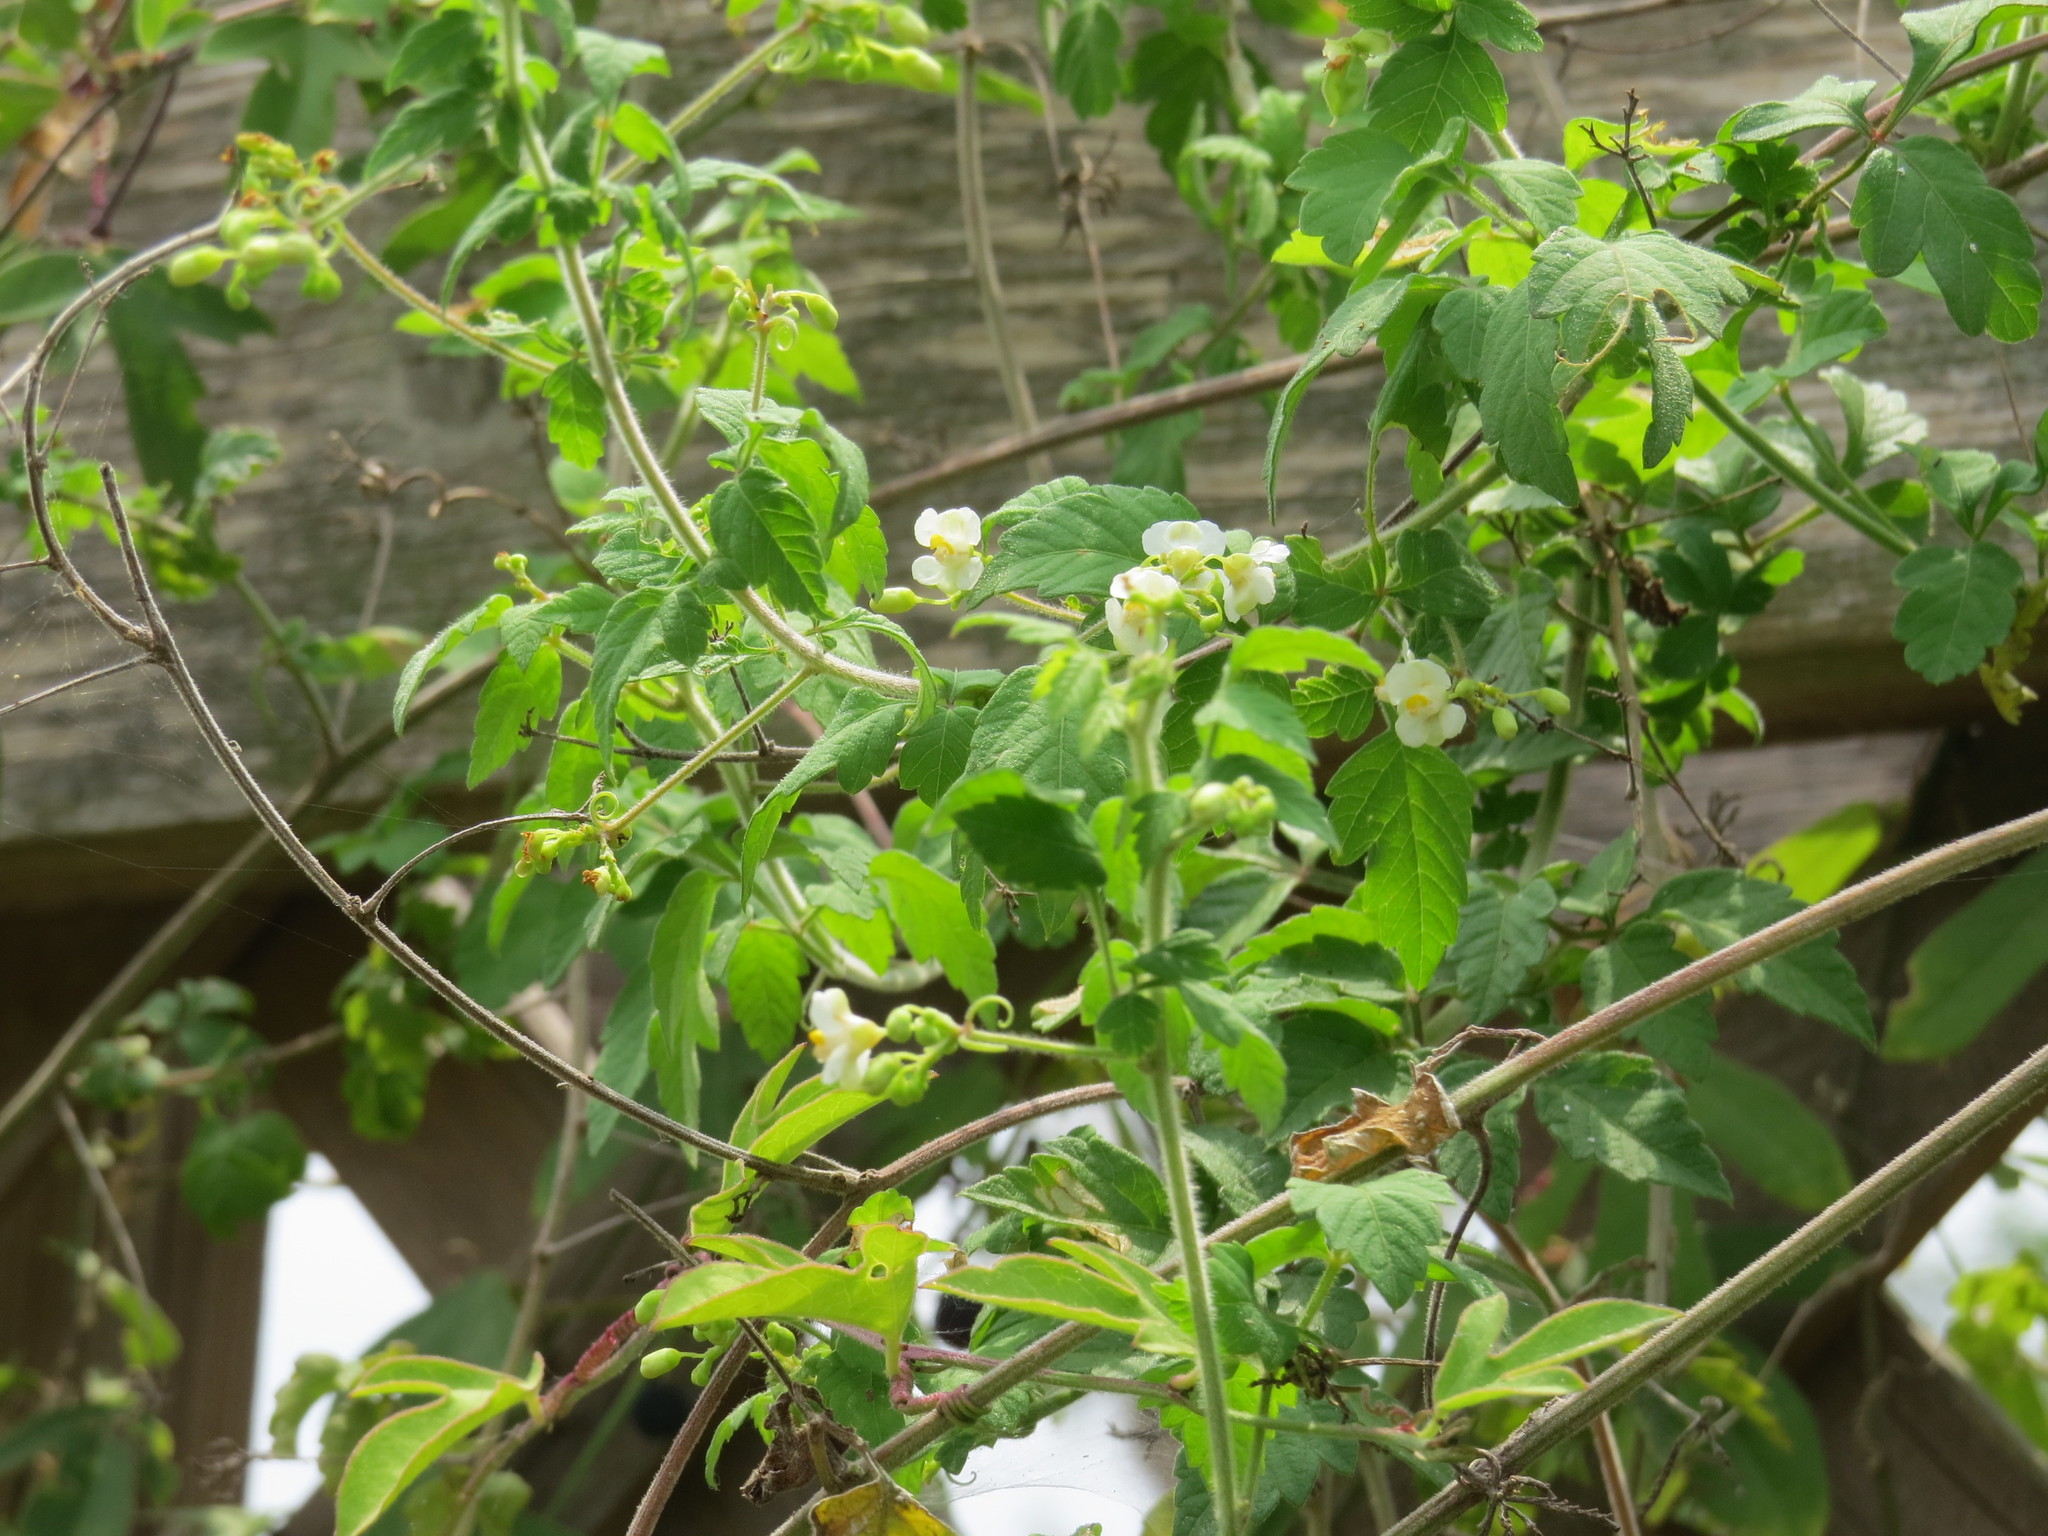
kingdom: Plantae
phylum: Tracheophyta
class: Magnoliopsida
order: Sapindales
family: Sapindaceae
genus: Cardiospermum
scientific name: Cardiospermum halicacabum
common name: Balloon vine
